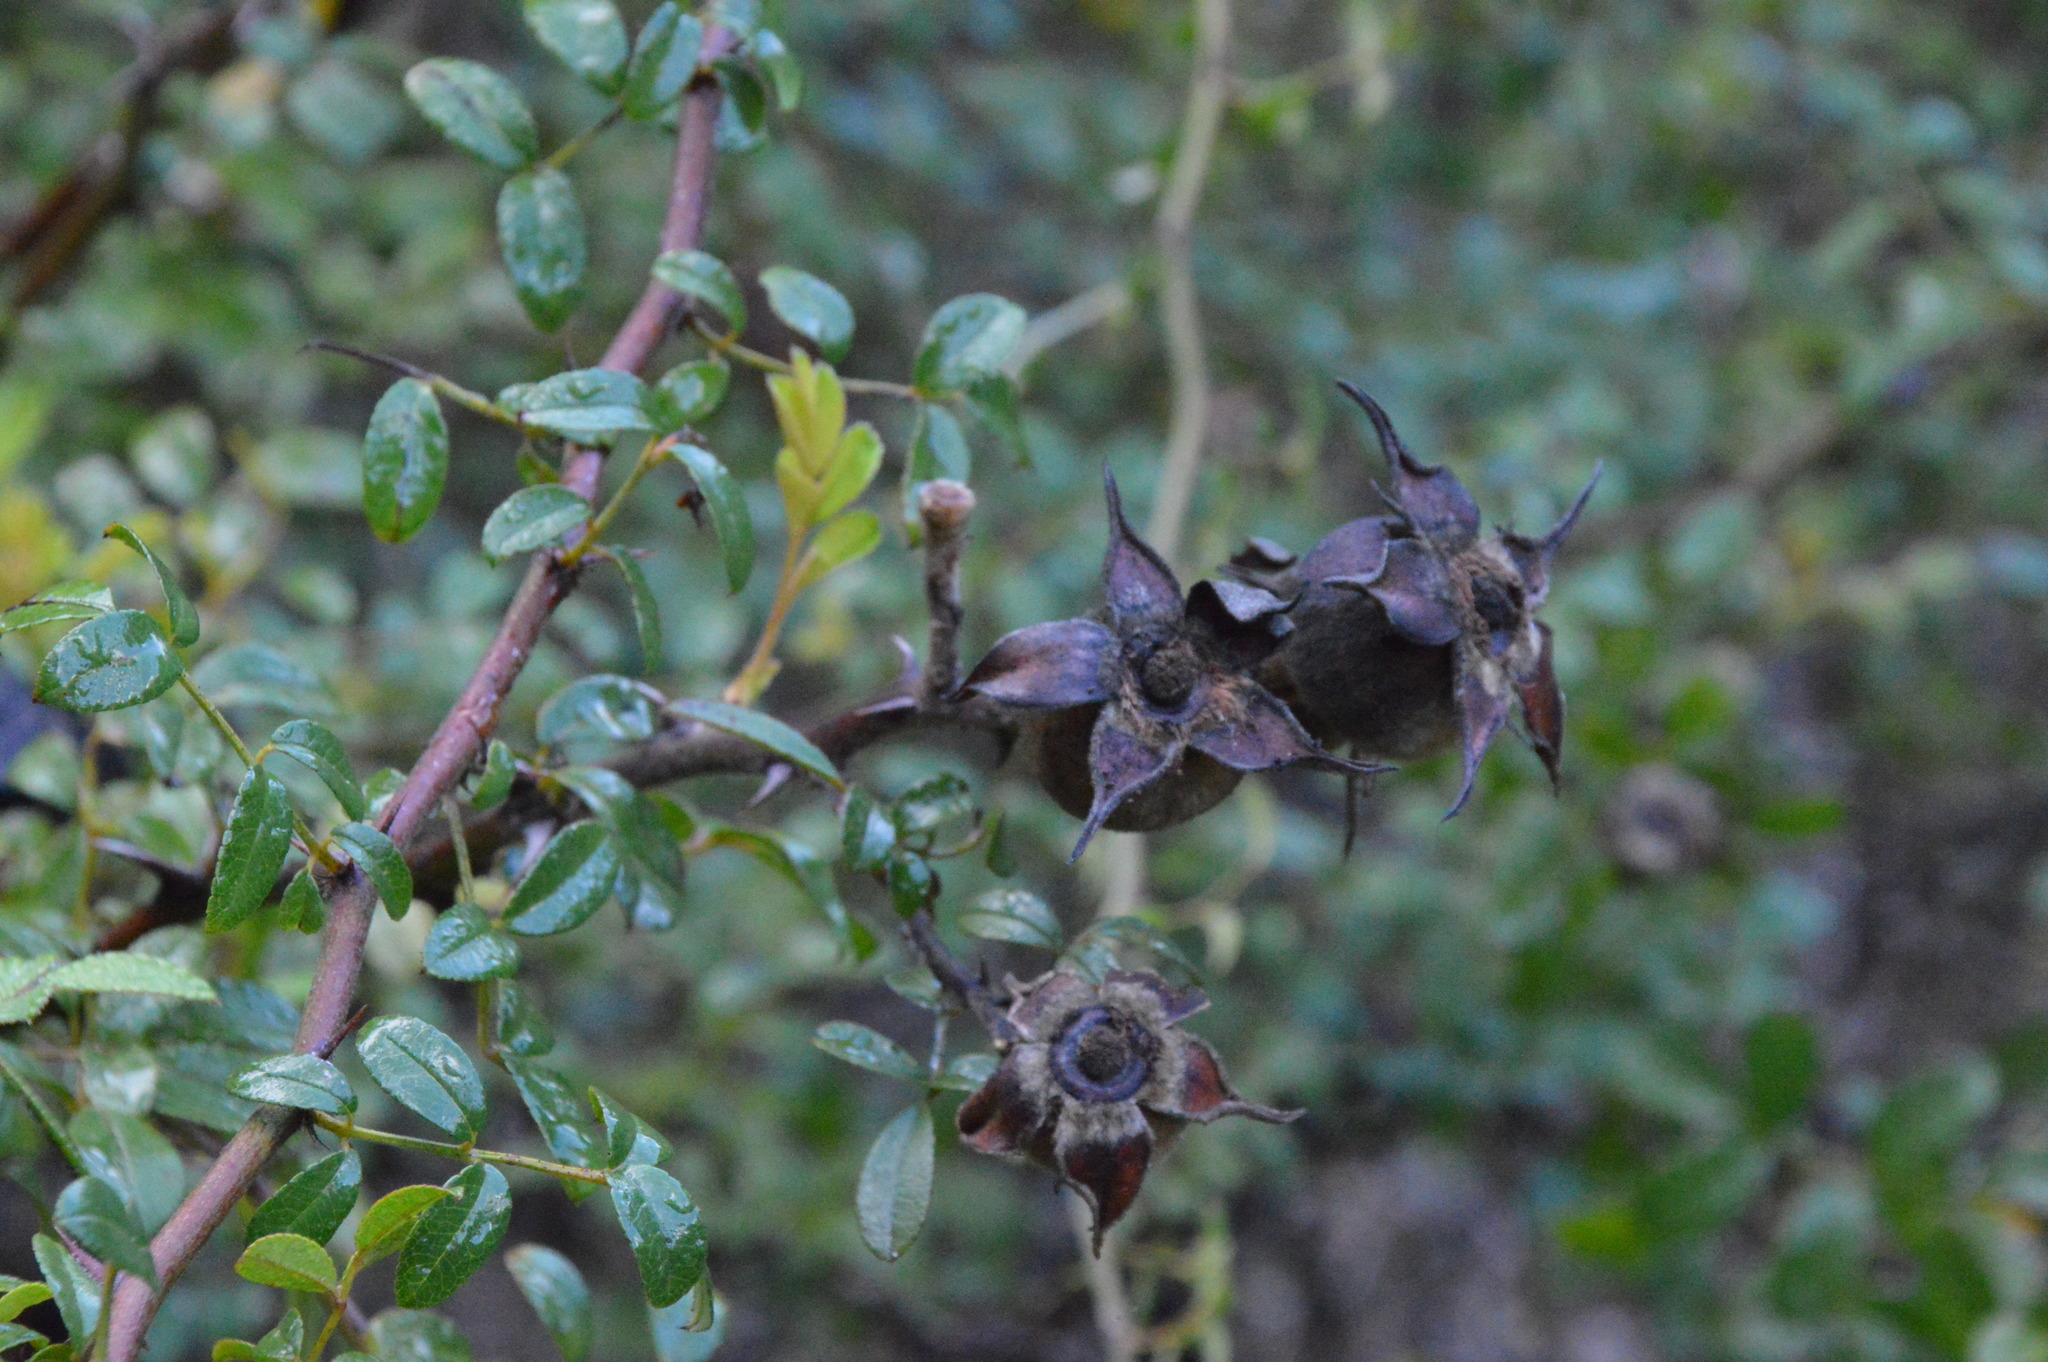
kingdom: Plantae
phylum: Tracheophyta
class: Magnoliopsida
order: Rosales
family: Rosaceae
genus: Rosa
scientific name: Rosa bracteata
